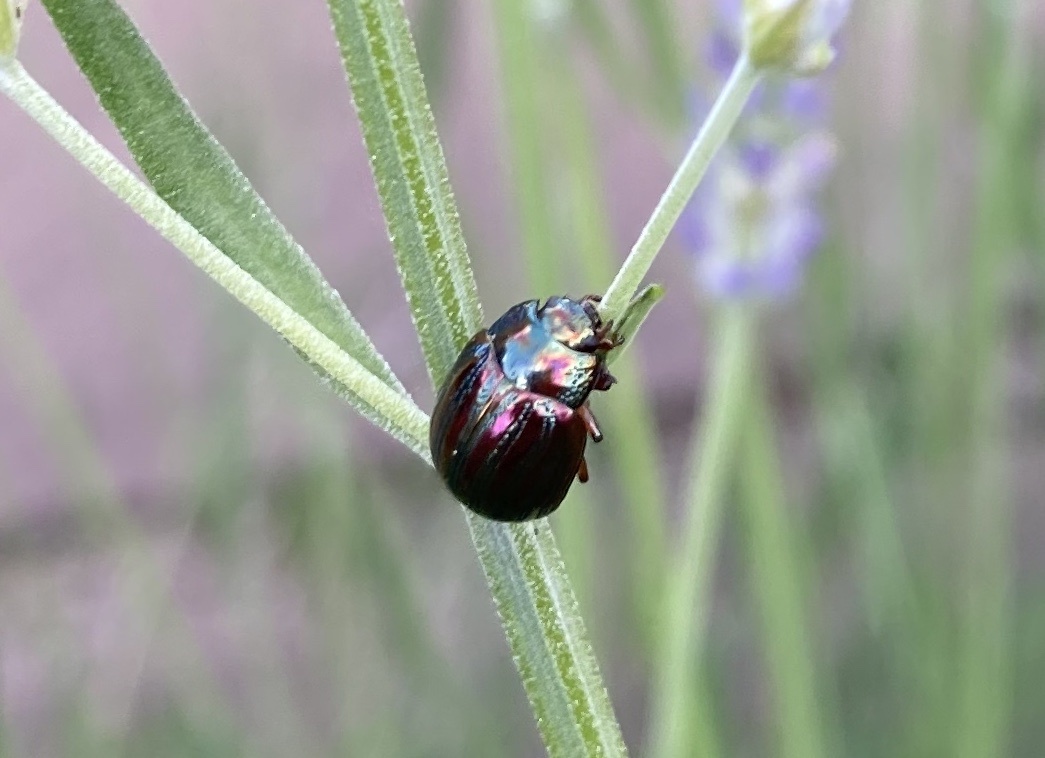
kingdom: Animalia
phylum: Arthropoda
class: Insecta
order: Coleoptera
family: Chrysomelidae
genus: Chrysolina
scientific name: Chrysolina americana
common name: Rosemary beetle
